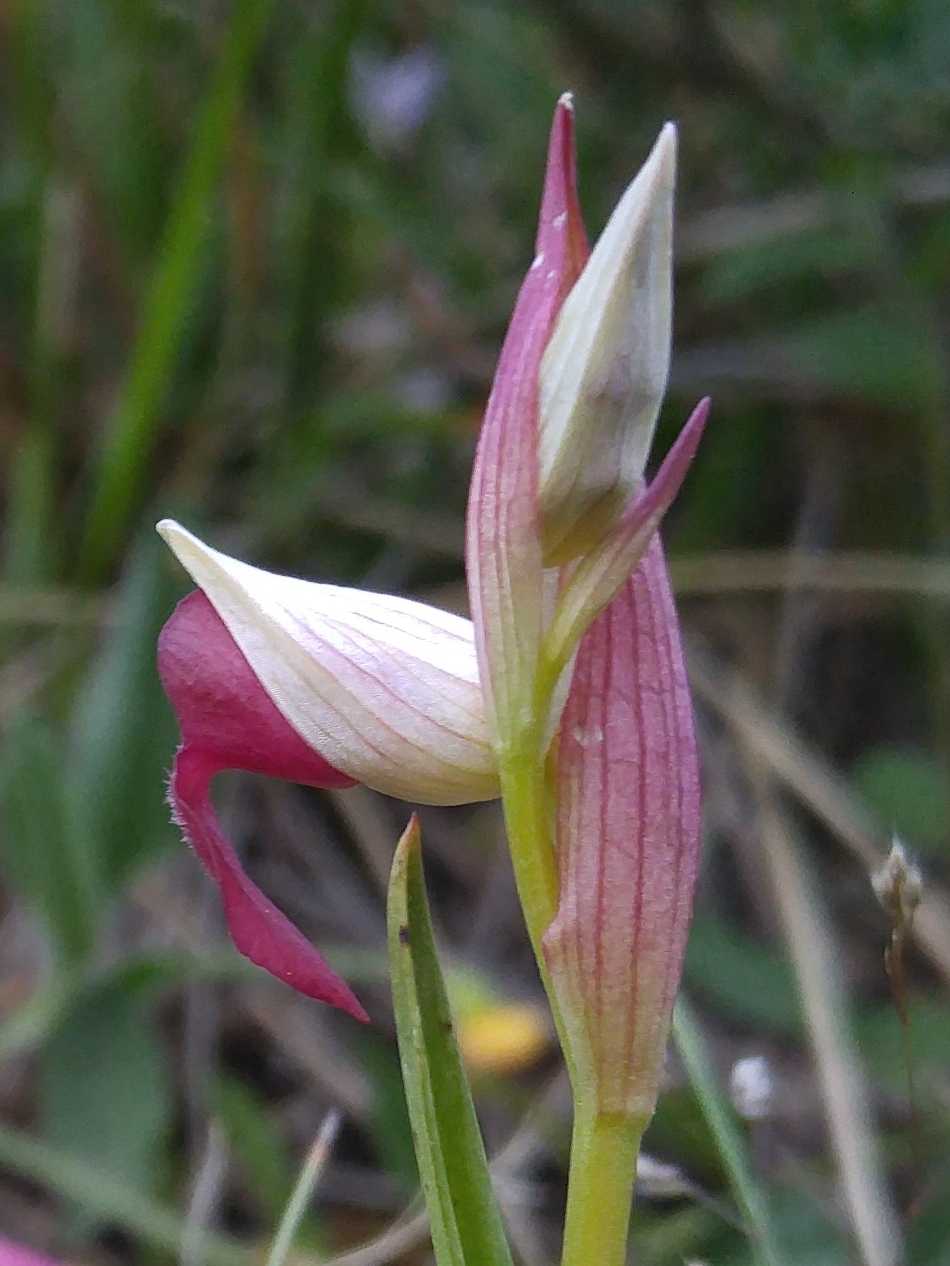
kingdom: Plantae
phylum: Tracheophyta
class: Liliopsida
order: Asparagales
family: Orchidaceae
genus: Serapias
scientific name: Serapias lingua
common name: Tongue-orchid
